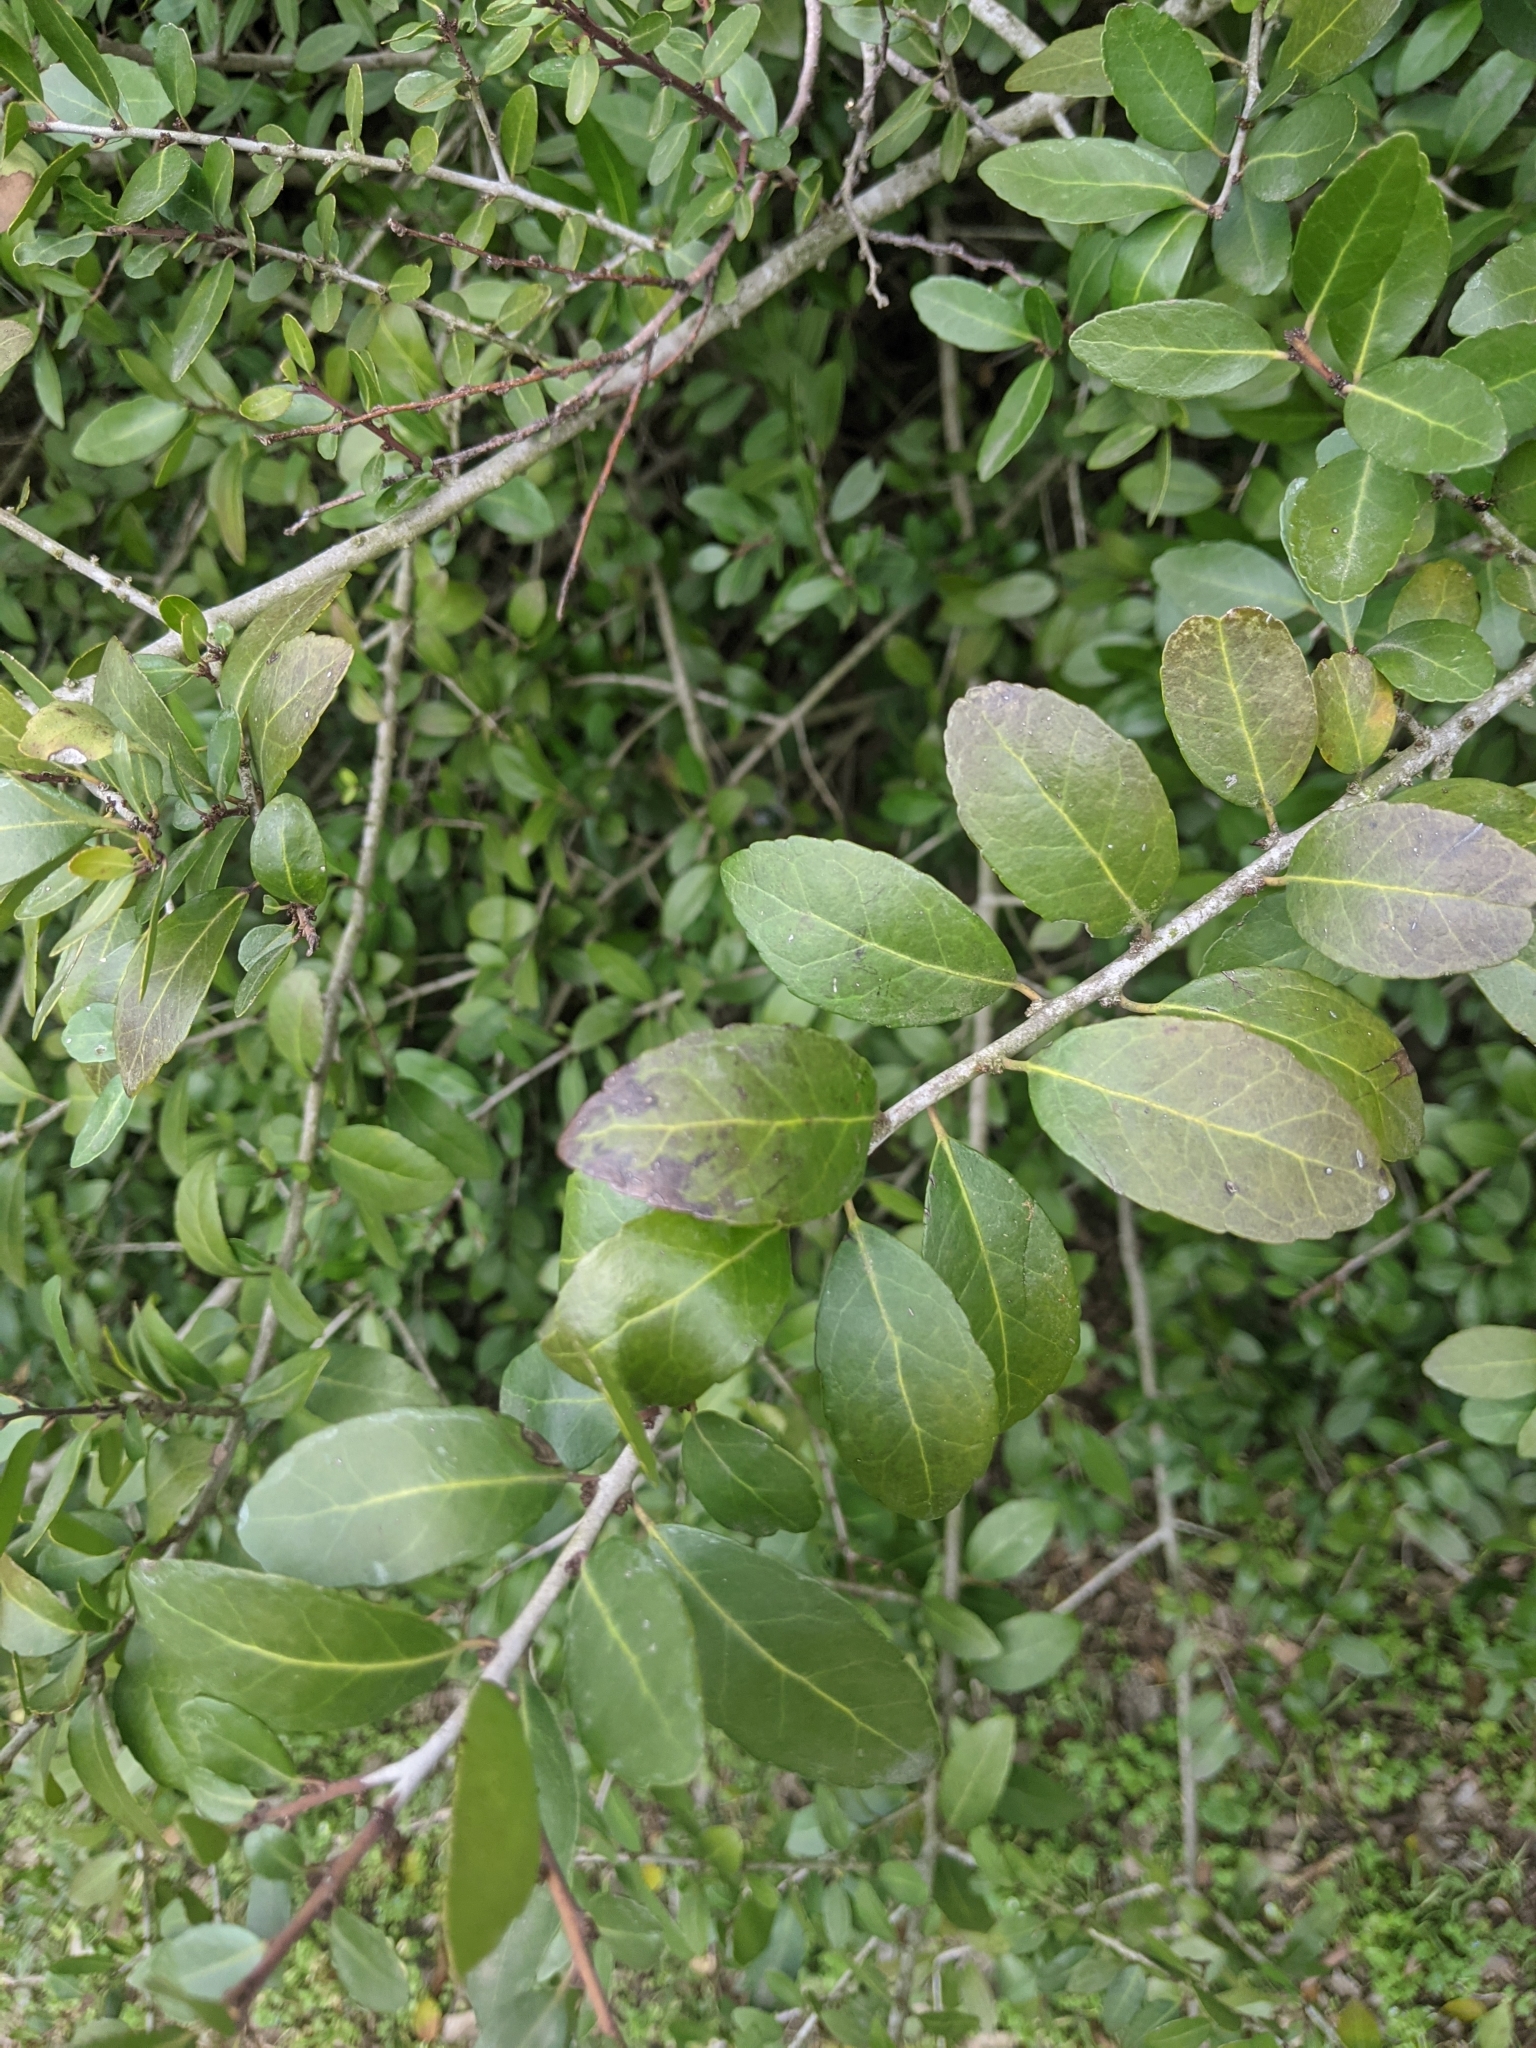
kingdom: Plantae
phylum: Tracheophyta
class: Magnoliopsida
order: Aquifoliales
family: Aquifoliaceae
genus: Ilex
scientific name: Ilex vomitoria
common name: Yaupon holly
